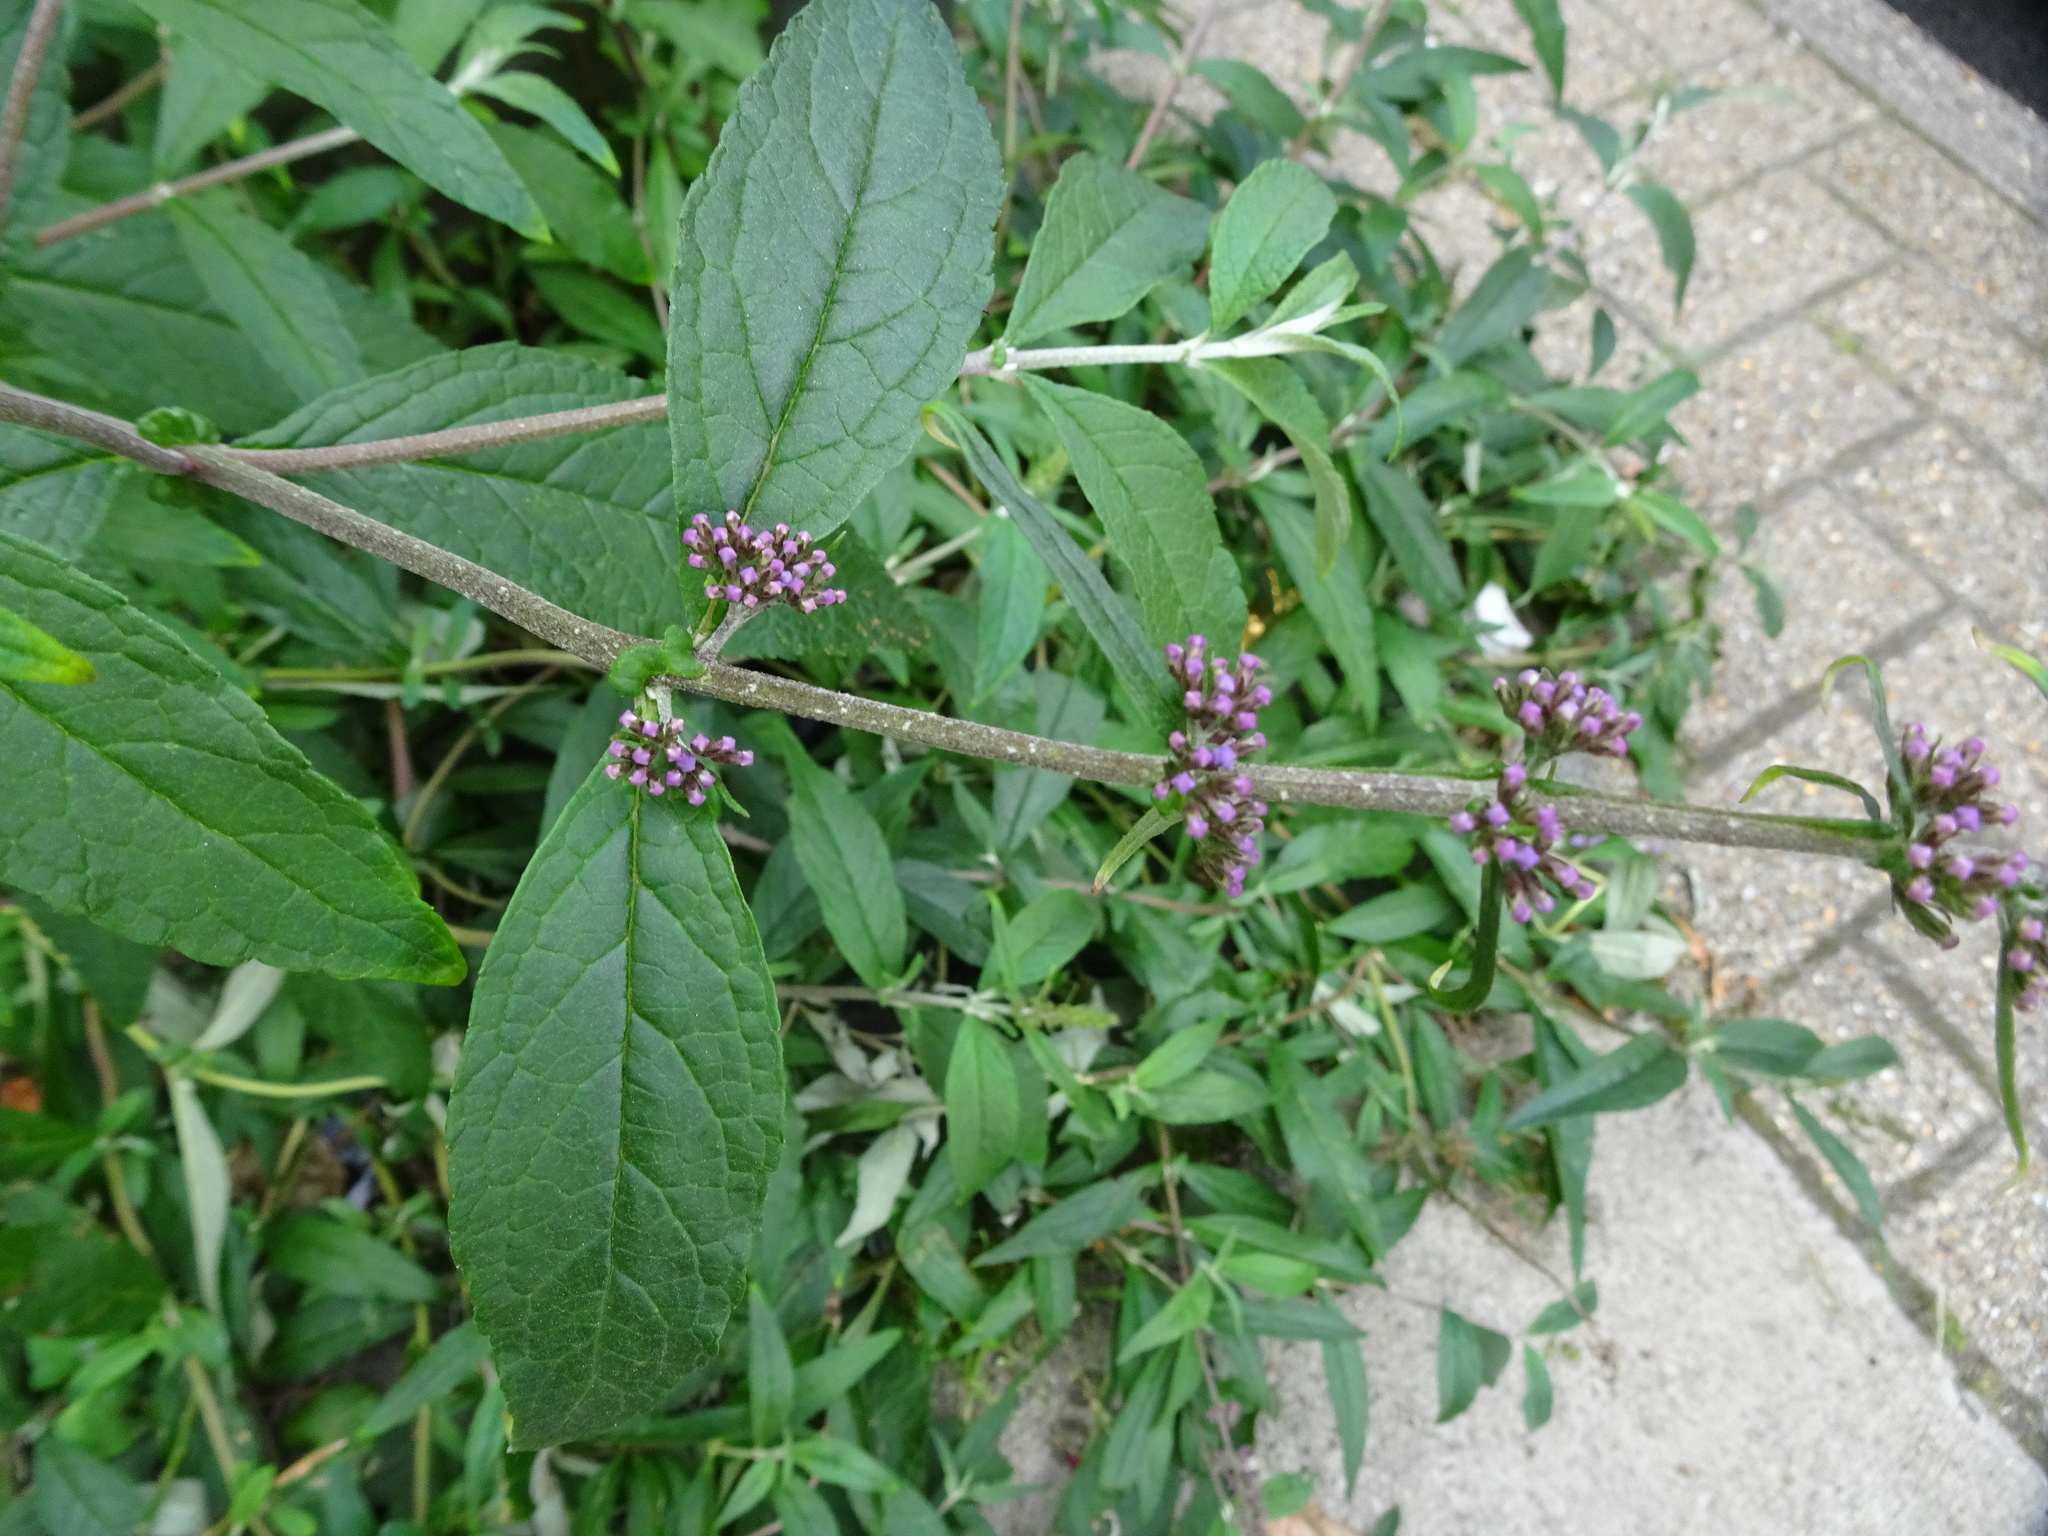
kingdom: Plantae
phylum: Tracheophyta
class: Magnoliopsida
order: Lamiales
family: Scrophulariaceae
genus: Buddleja
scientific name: Buddleja davidii
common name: Butterfly-bush
